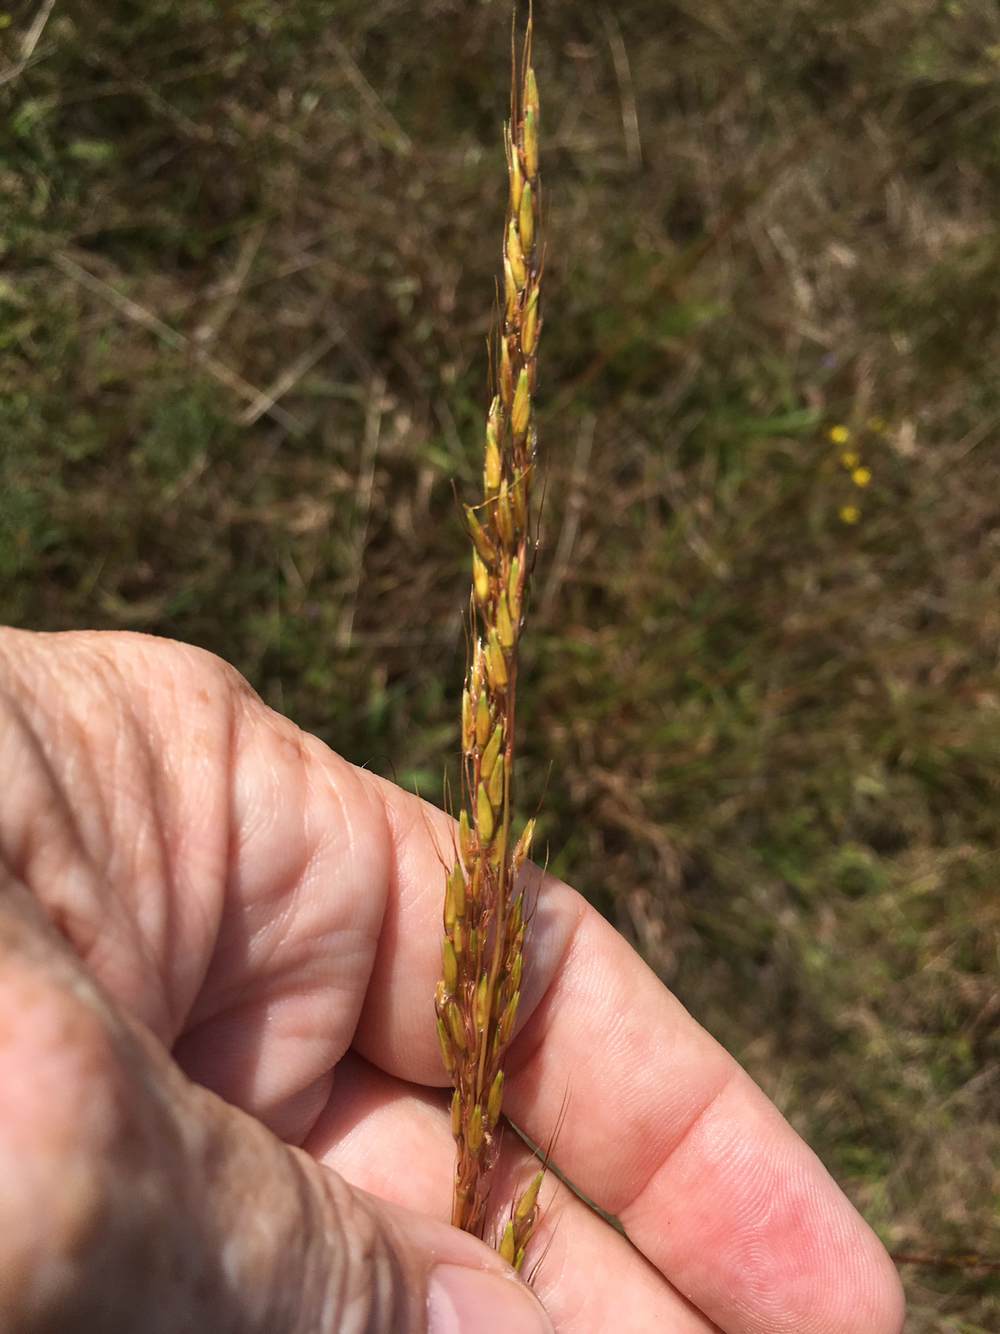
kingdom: Plantae
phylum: Tracheophyta
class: Liliopsida
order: Poales
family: Poaceae
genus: Sorghastrum
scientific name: Sorghastrum nutans
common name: Indian grass
